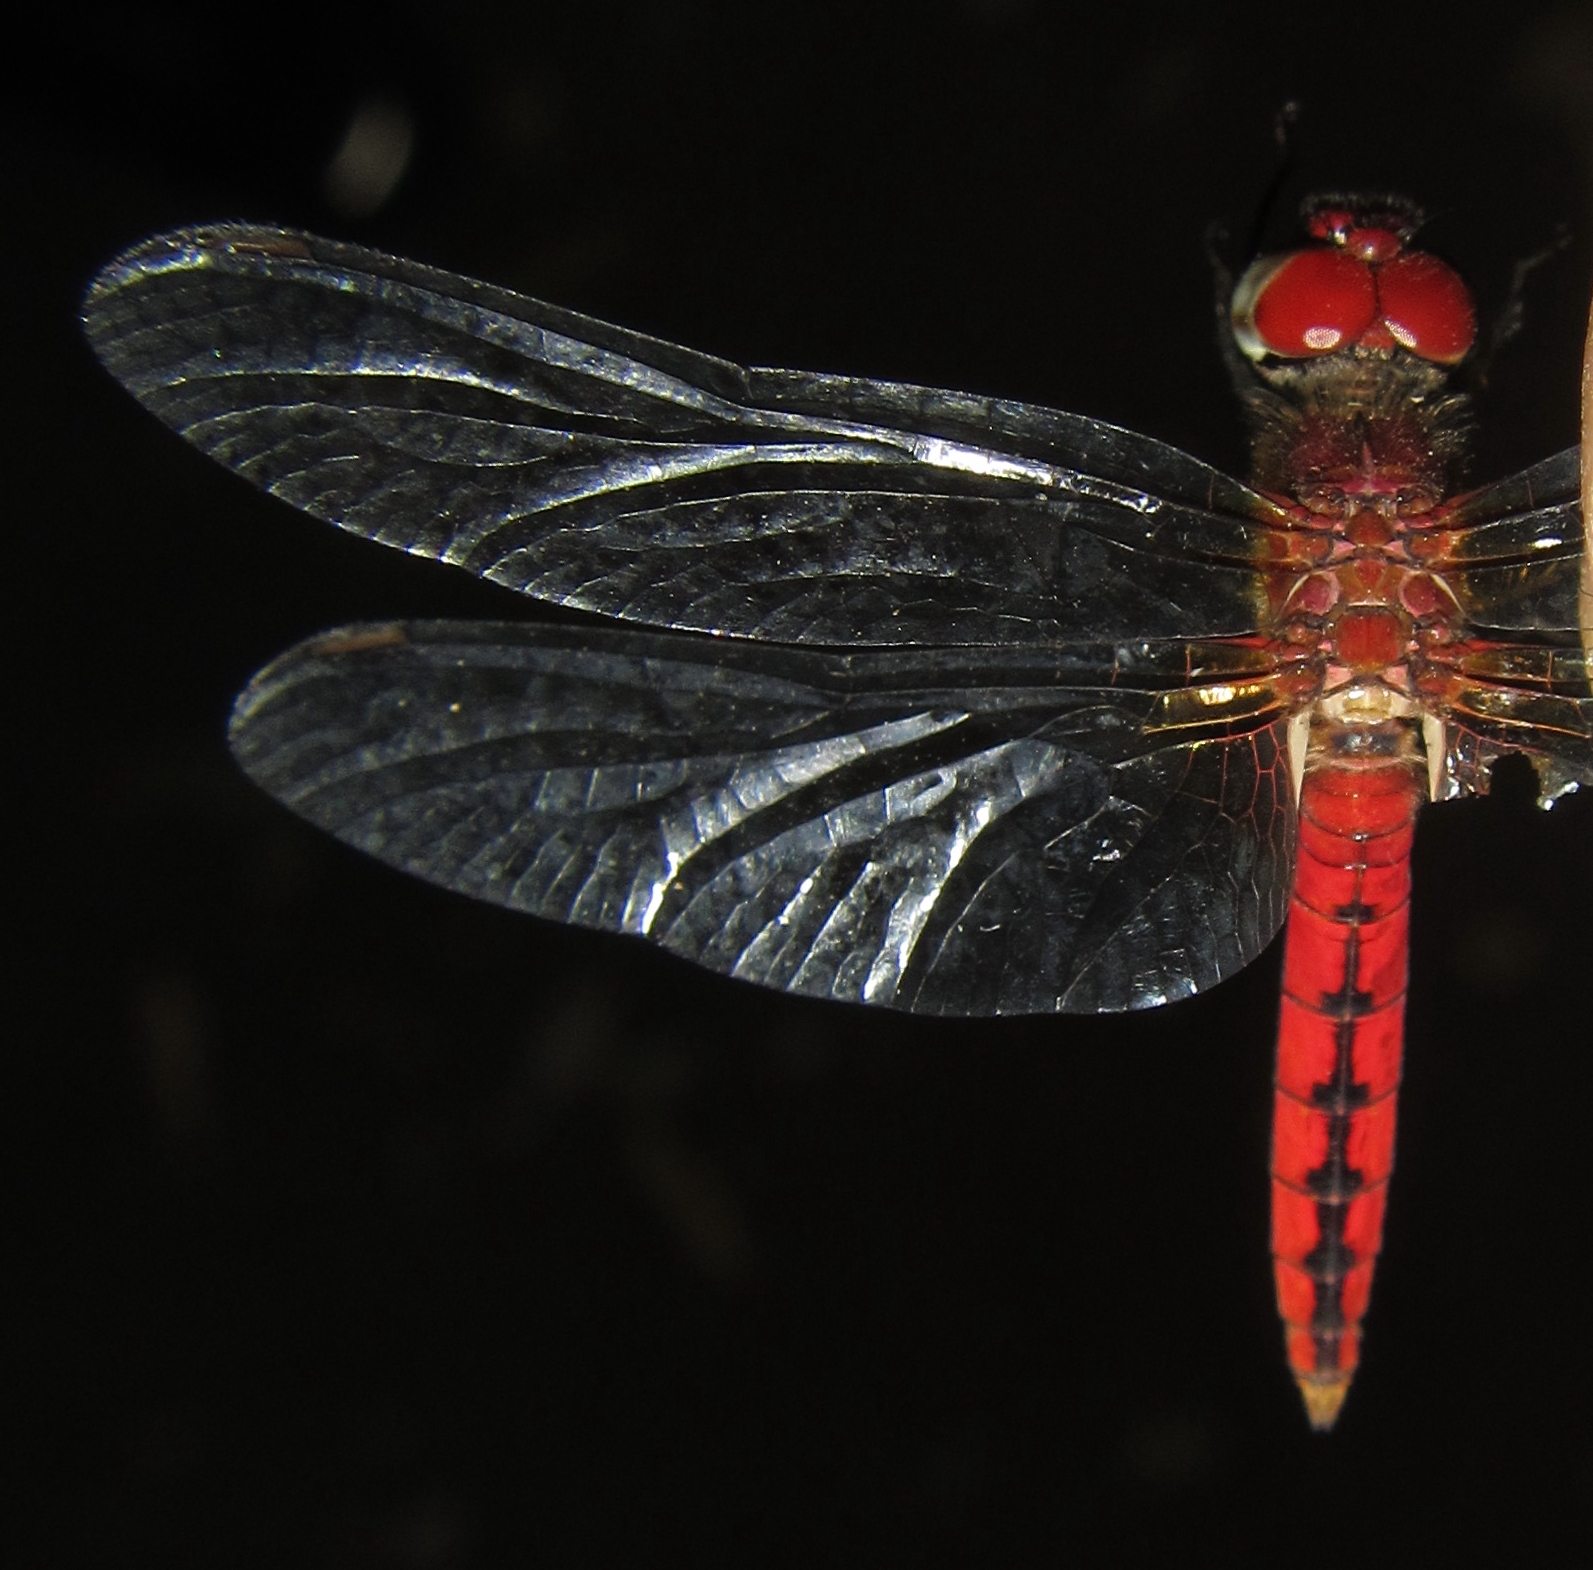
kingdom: Animalia
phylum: Arthropoda
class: Insecta
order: Odonata
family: Libellulidae
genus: Aethriamanta
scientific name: Aethriamanta rezia
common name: Pygmy basker
